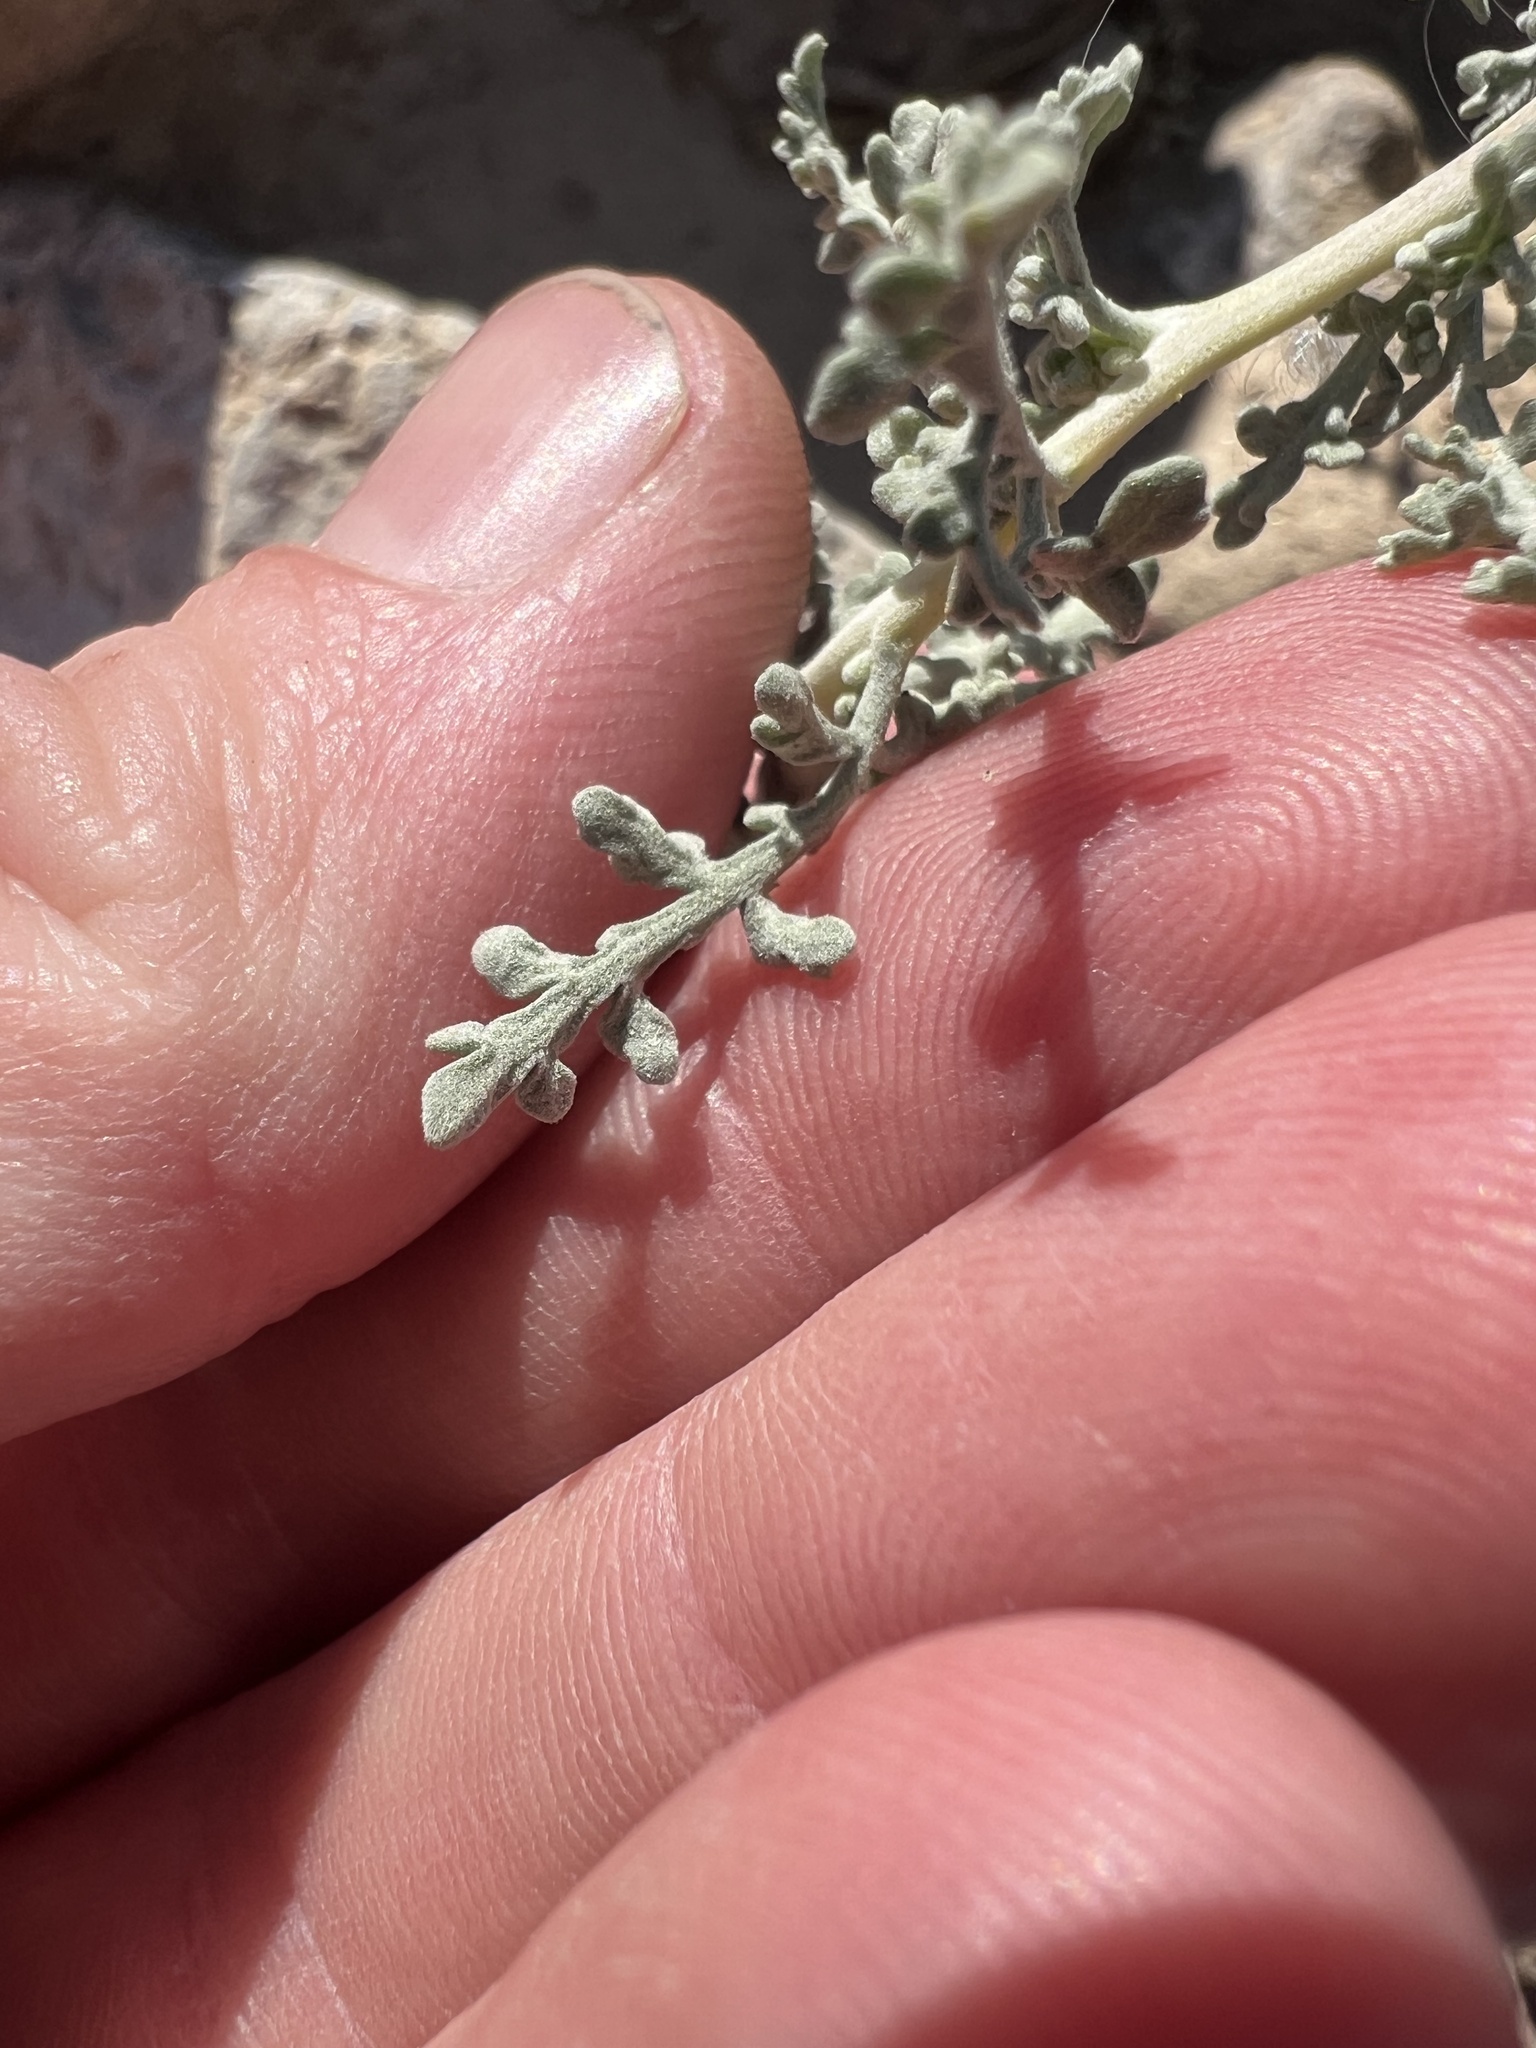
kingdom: Plantae
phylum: Tracheophyta
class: Magnoliopsida
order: Asterales
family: Asteraceae
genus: Ambrosia
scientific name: Ambrosia dumosa
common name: Bur-sage
